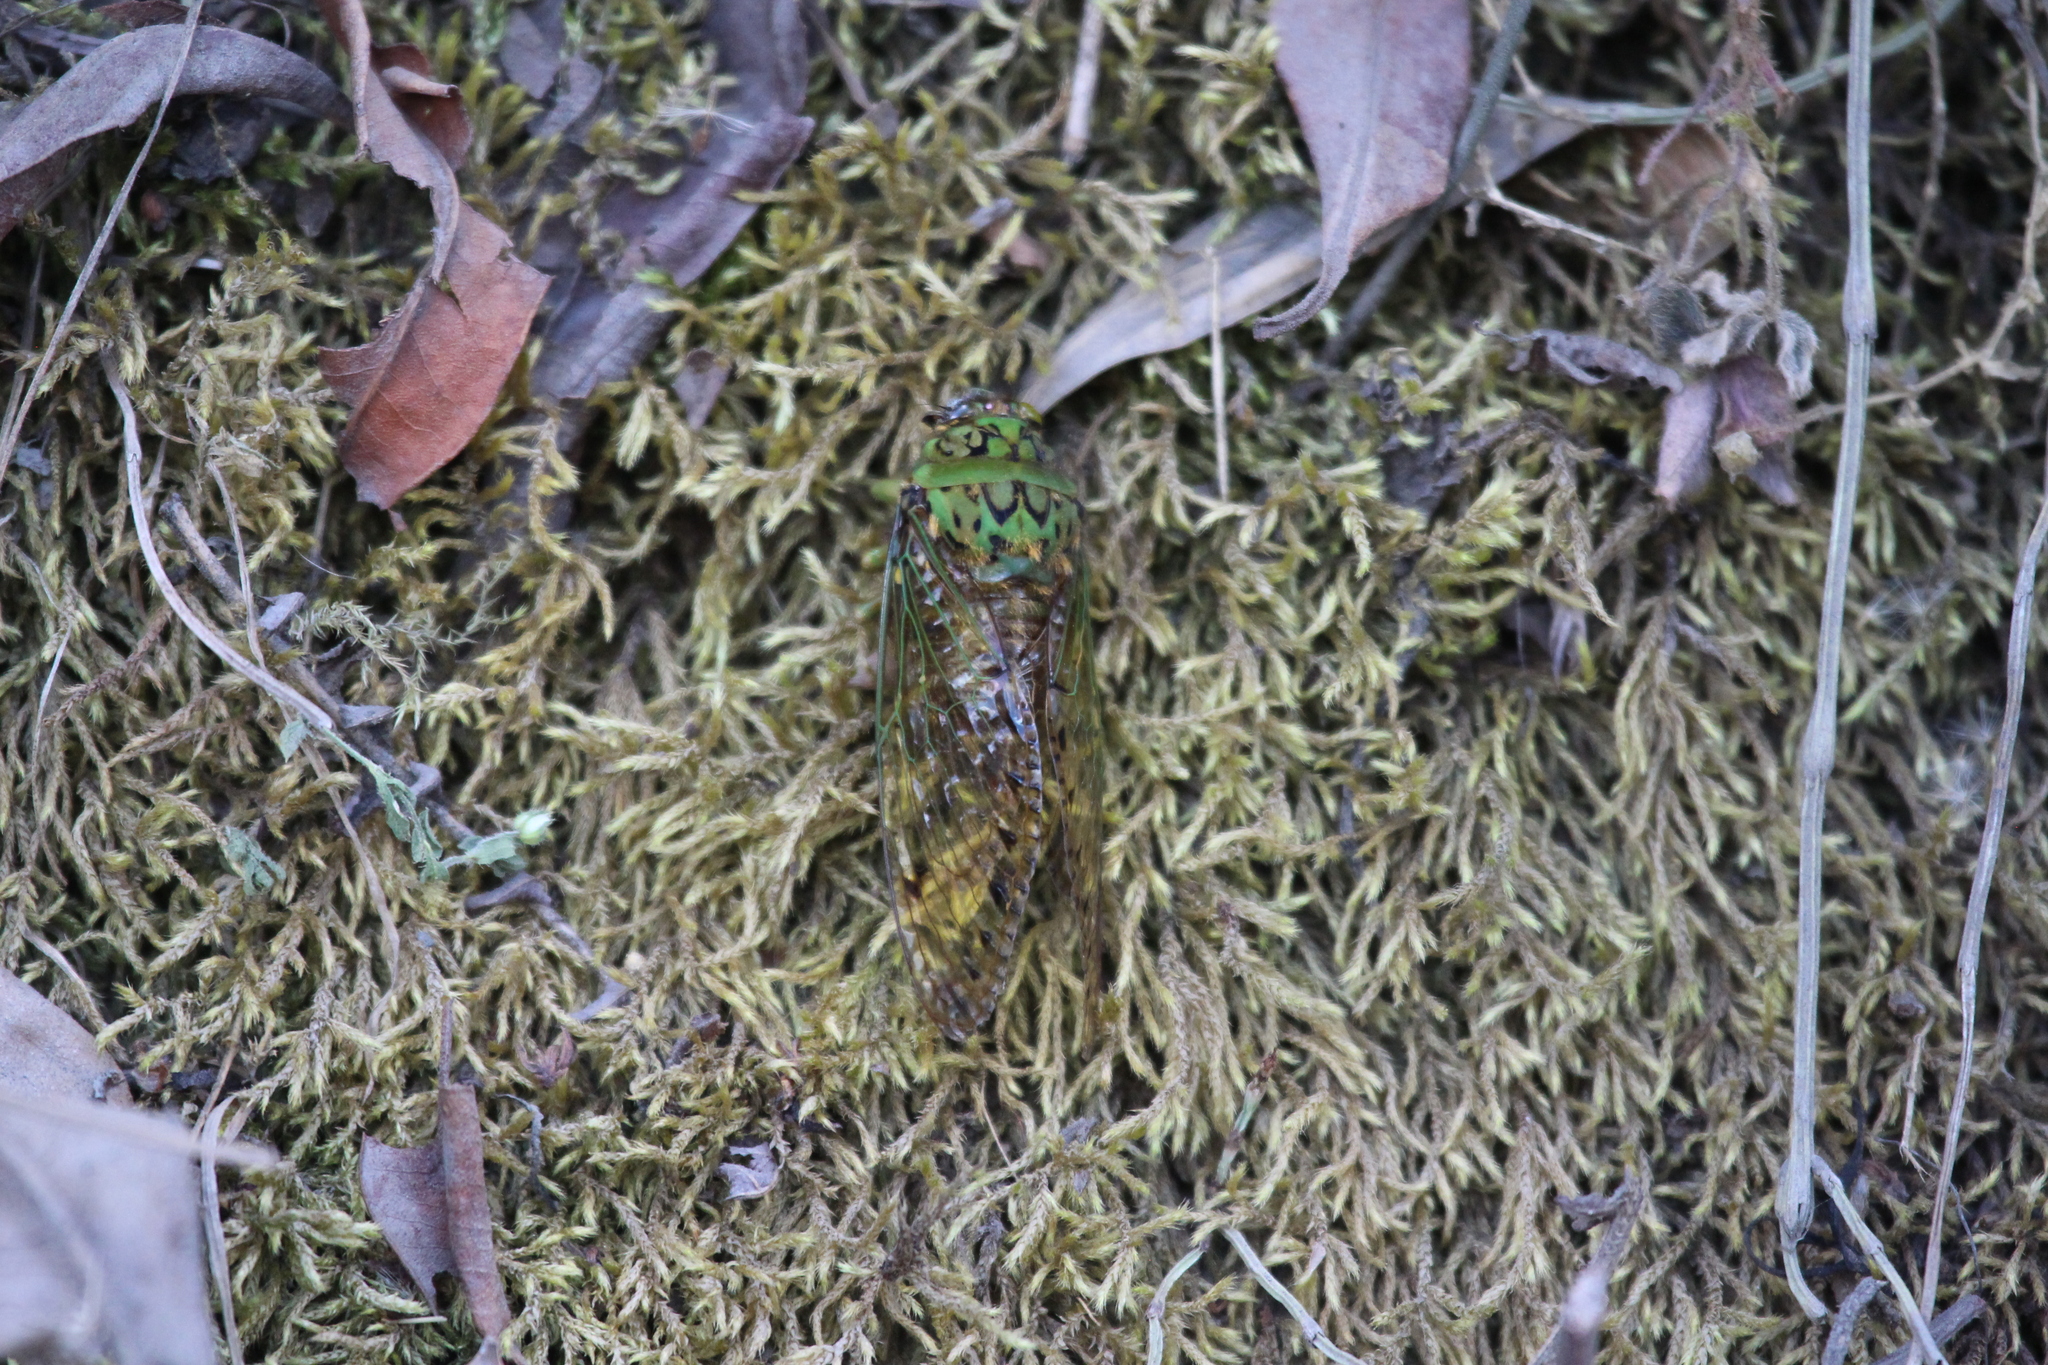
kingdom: Animalia
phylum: Arthropoda
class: Insecta
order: Hemiptera
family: Cicadidae
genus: Carineta
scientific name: Carineta castaneopercula
